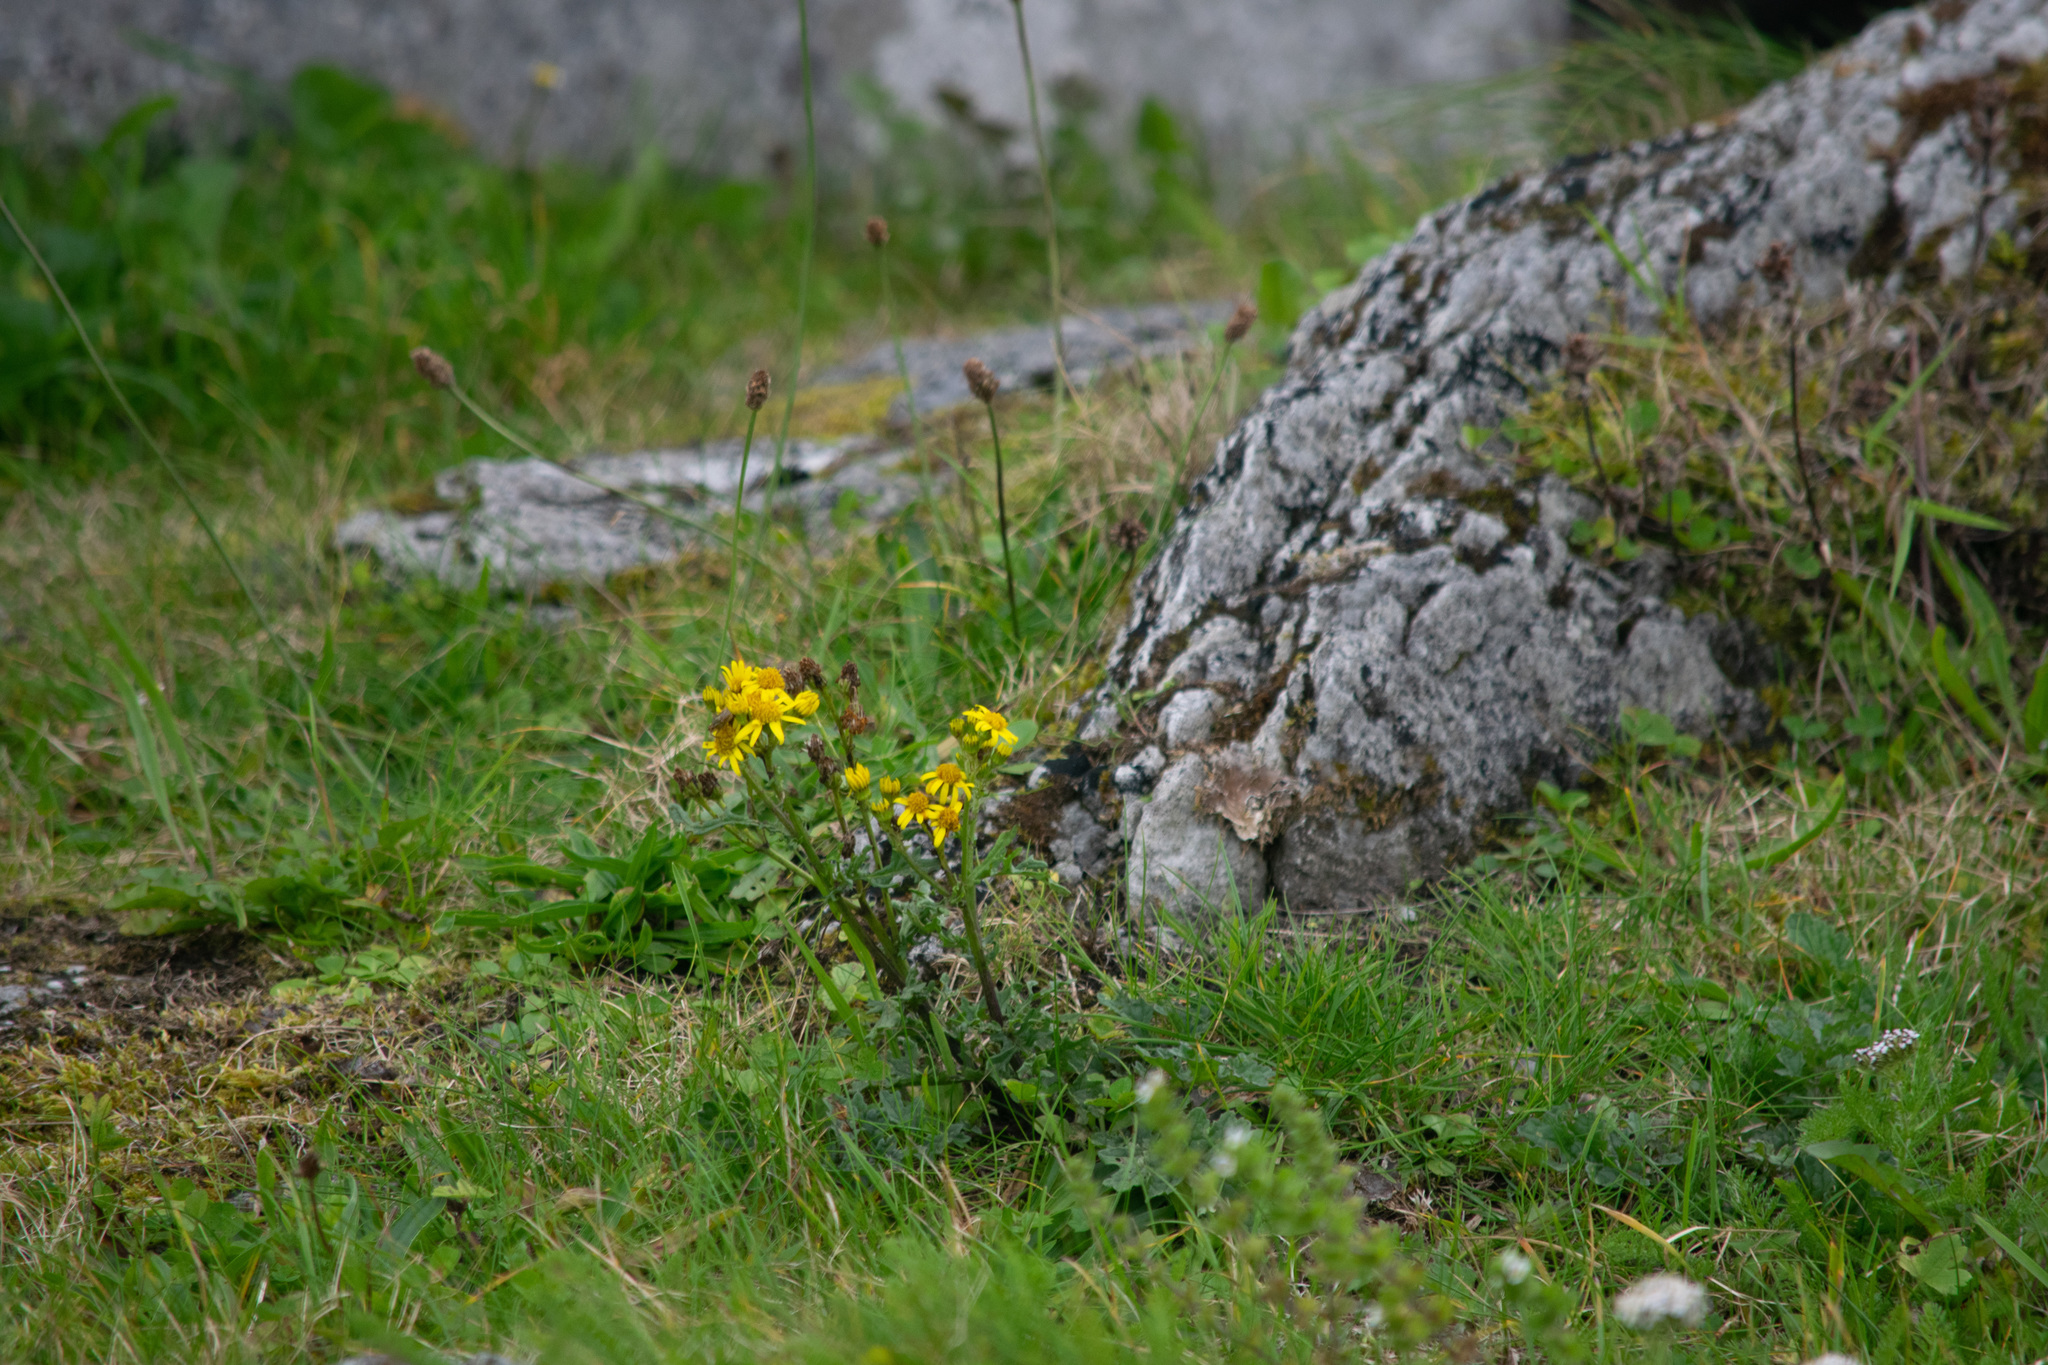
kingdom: Plantae
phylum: Tracheophyta
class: Magnoliopsida
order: Asterales
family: Asteraceae
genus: Jacobaea
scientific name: Jacobaea vulgaris
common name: Stinking willie
